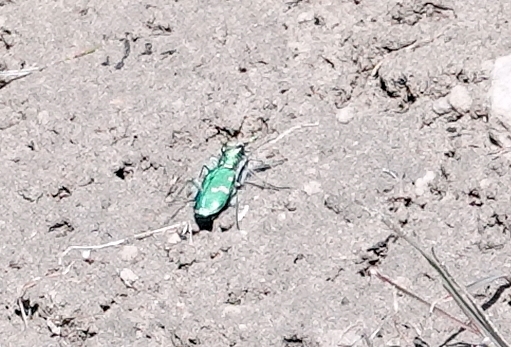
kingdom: Animalia
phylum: Arthropoda
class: Insecta
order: Coleoptera
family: Carabidae
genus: Cicindela
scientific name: Cicindela denverensis
